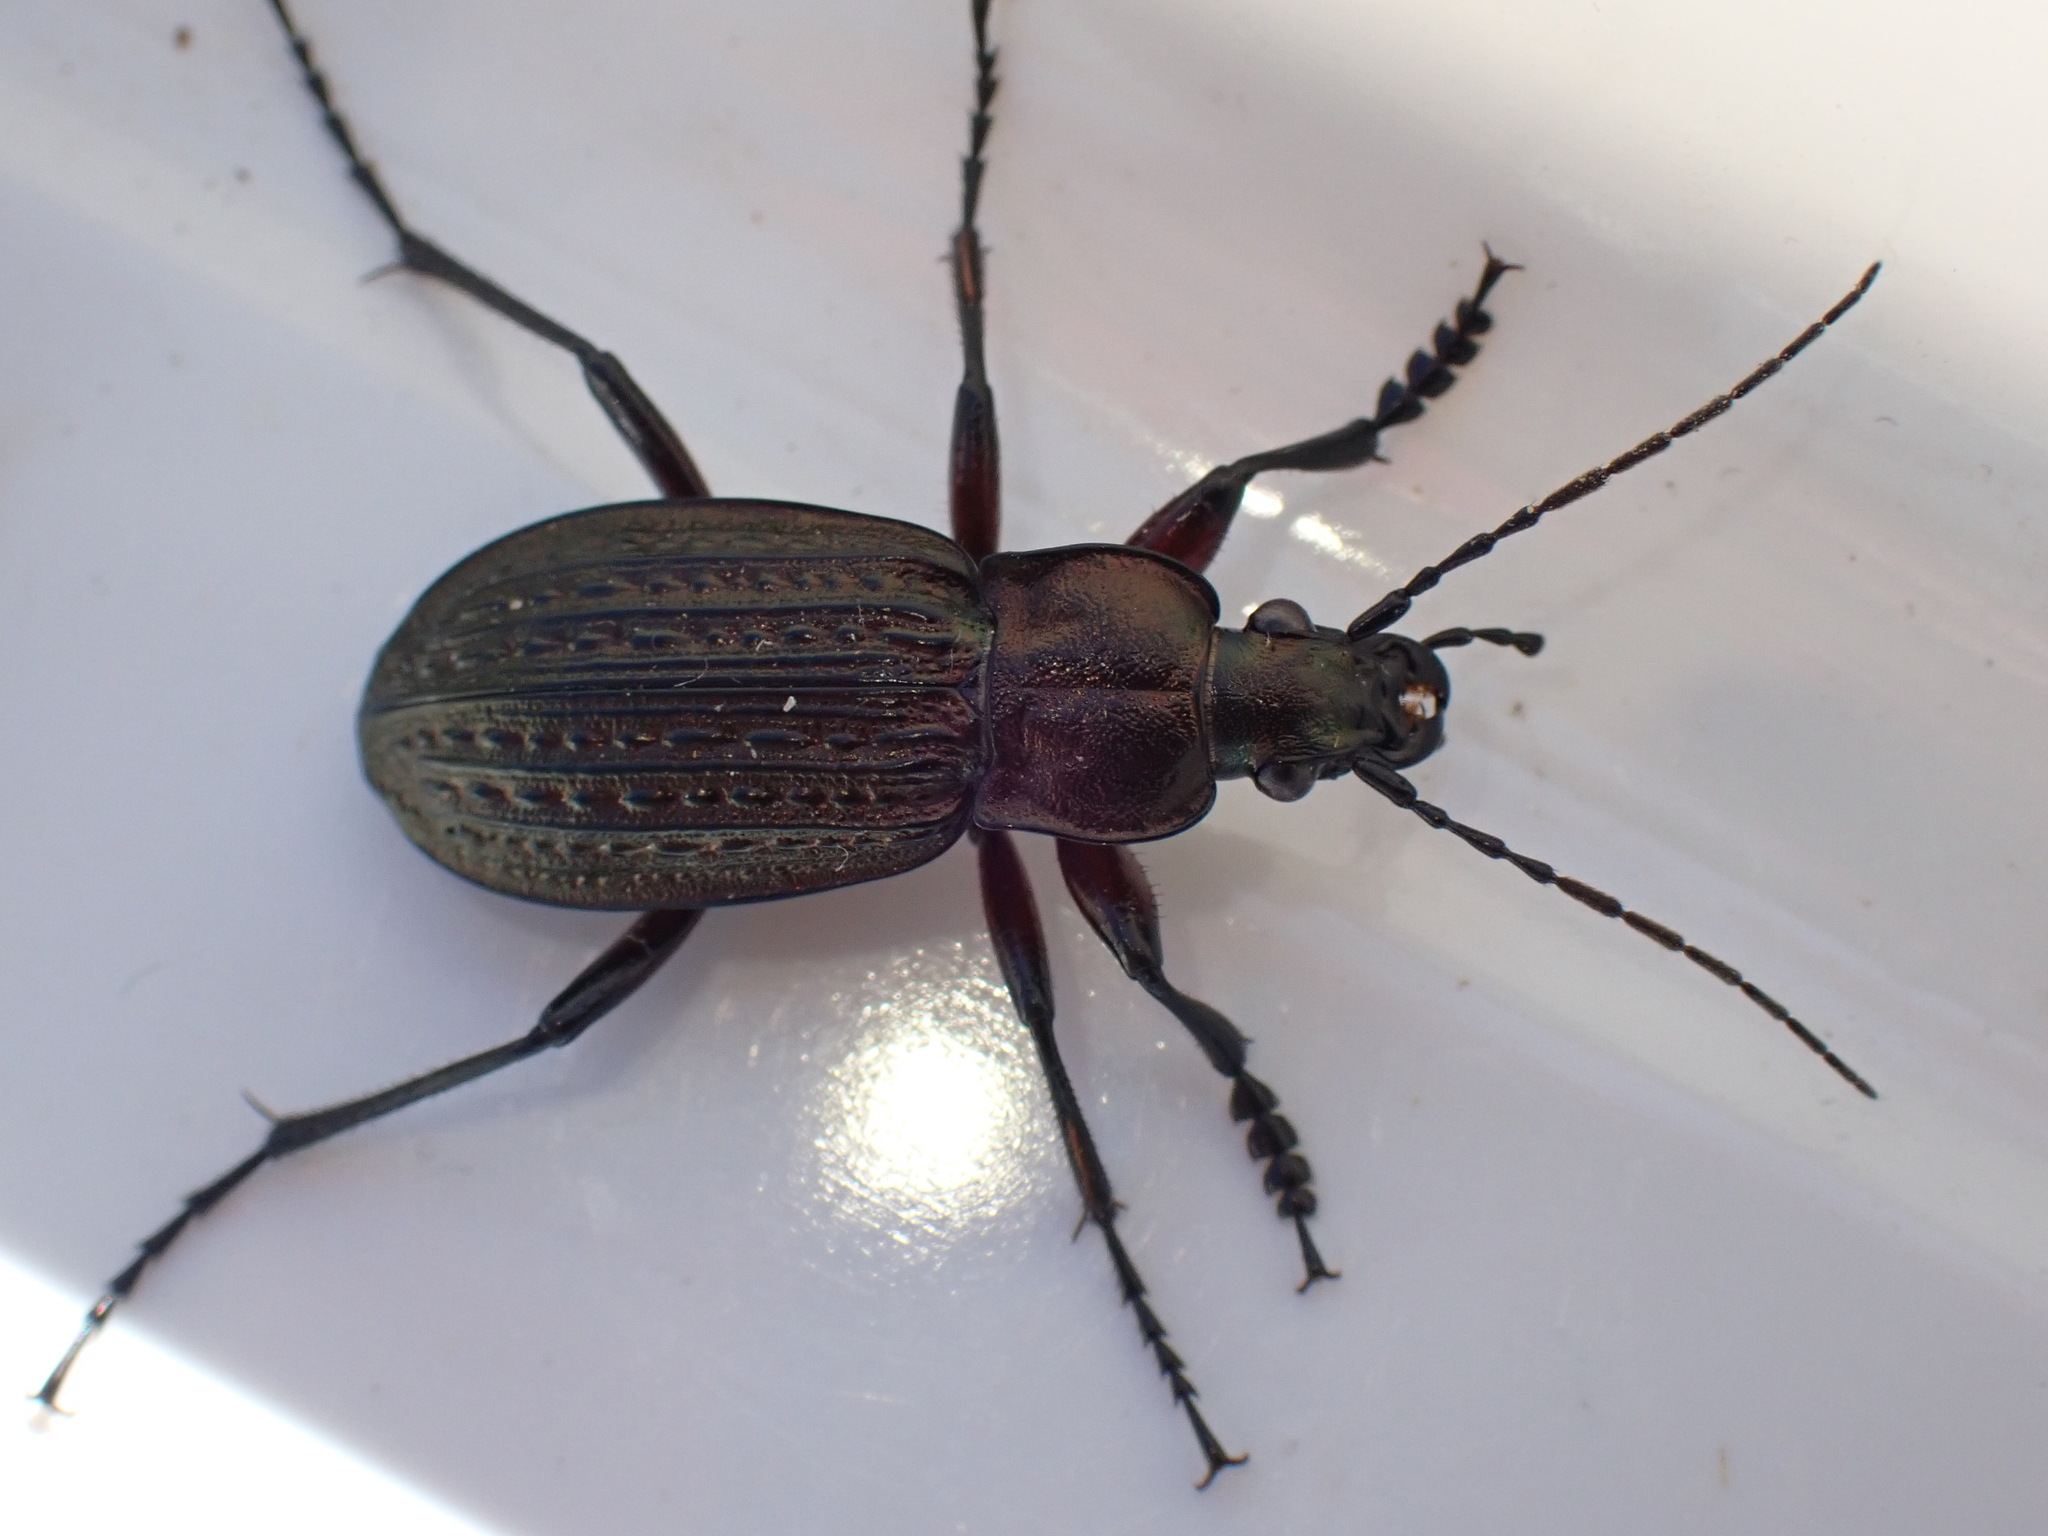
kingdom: Animalia
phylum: Arthropoda
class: Insecta
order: Coleoptera
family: Carabidae
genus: Carabus
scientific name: Carabus granulatus
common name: Granulate ground beetle
